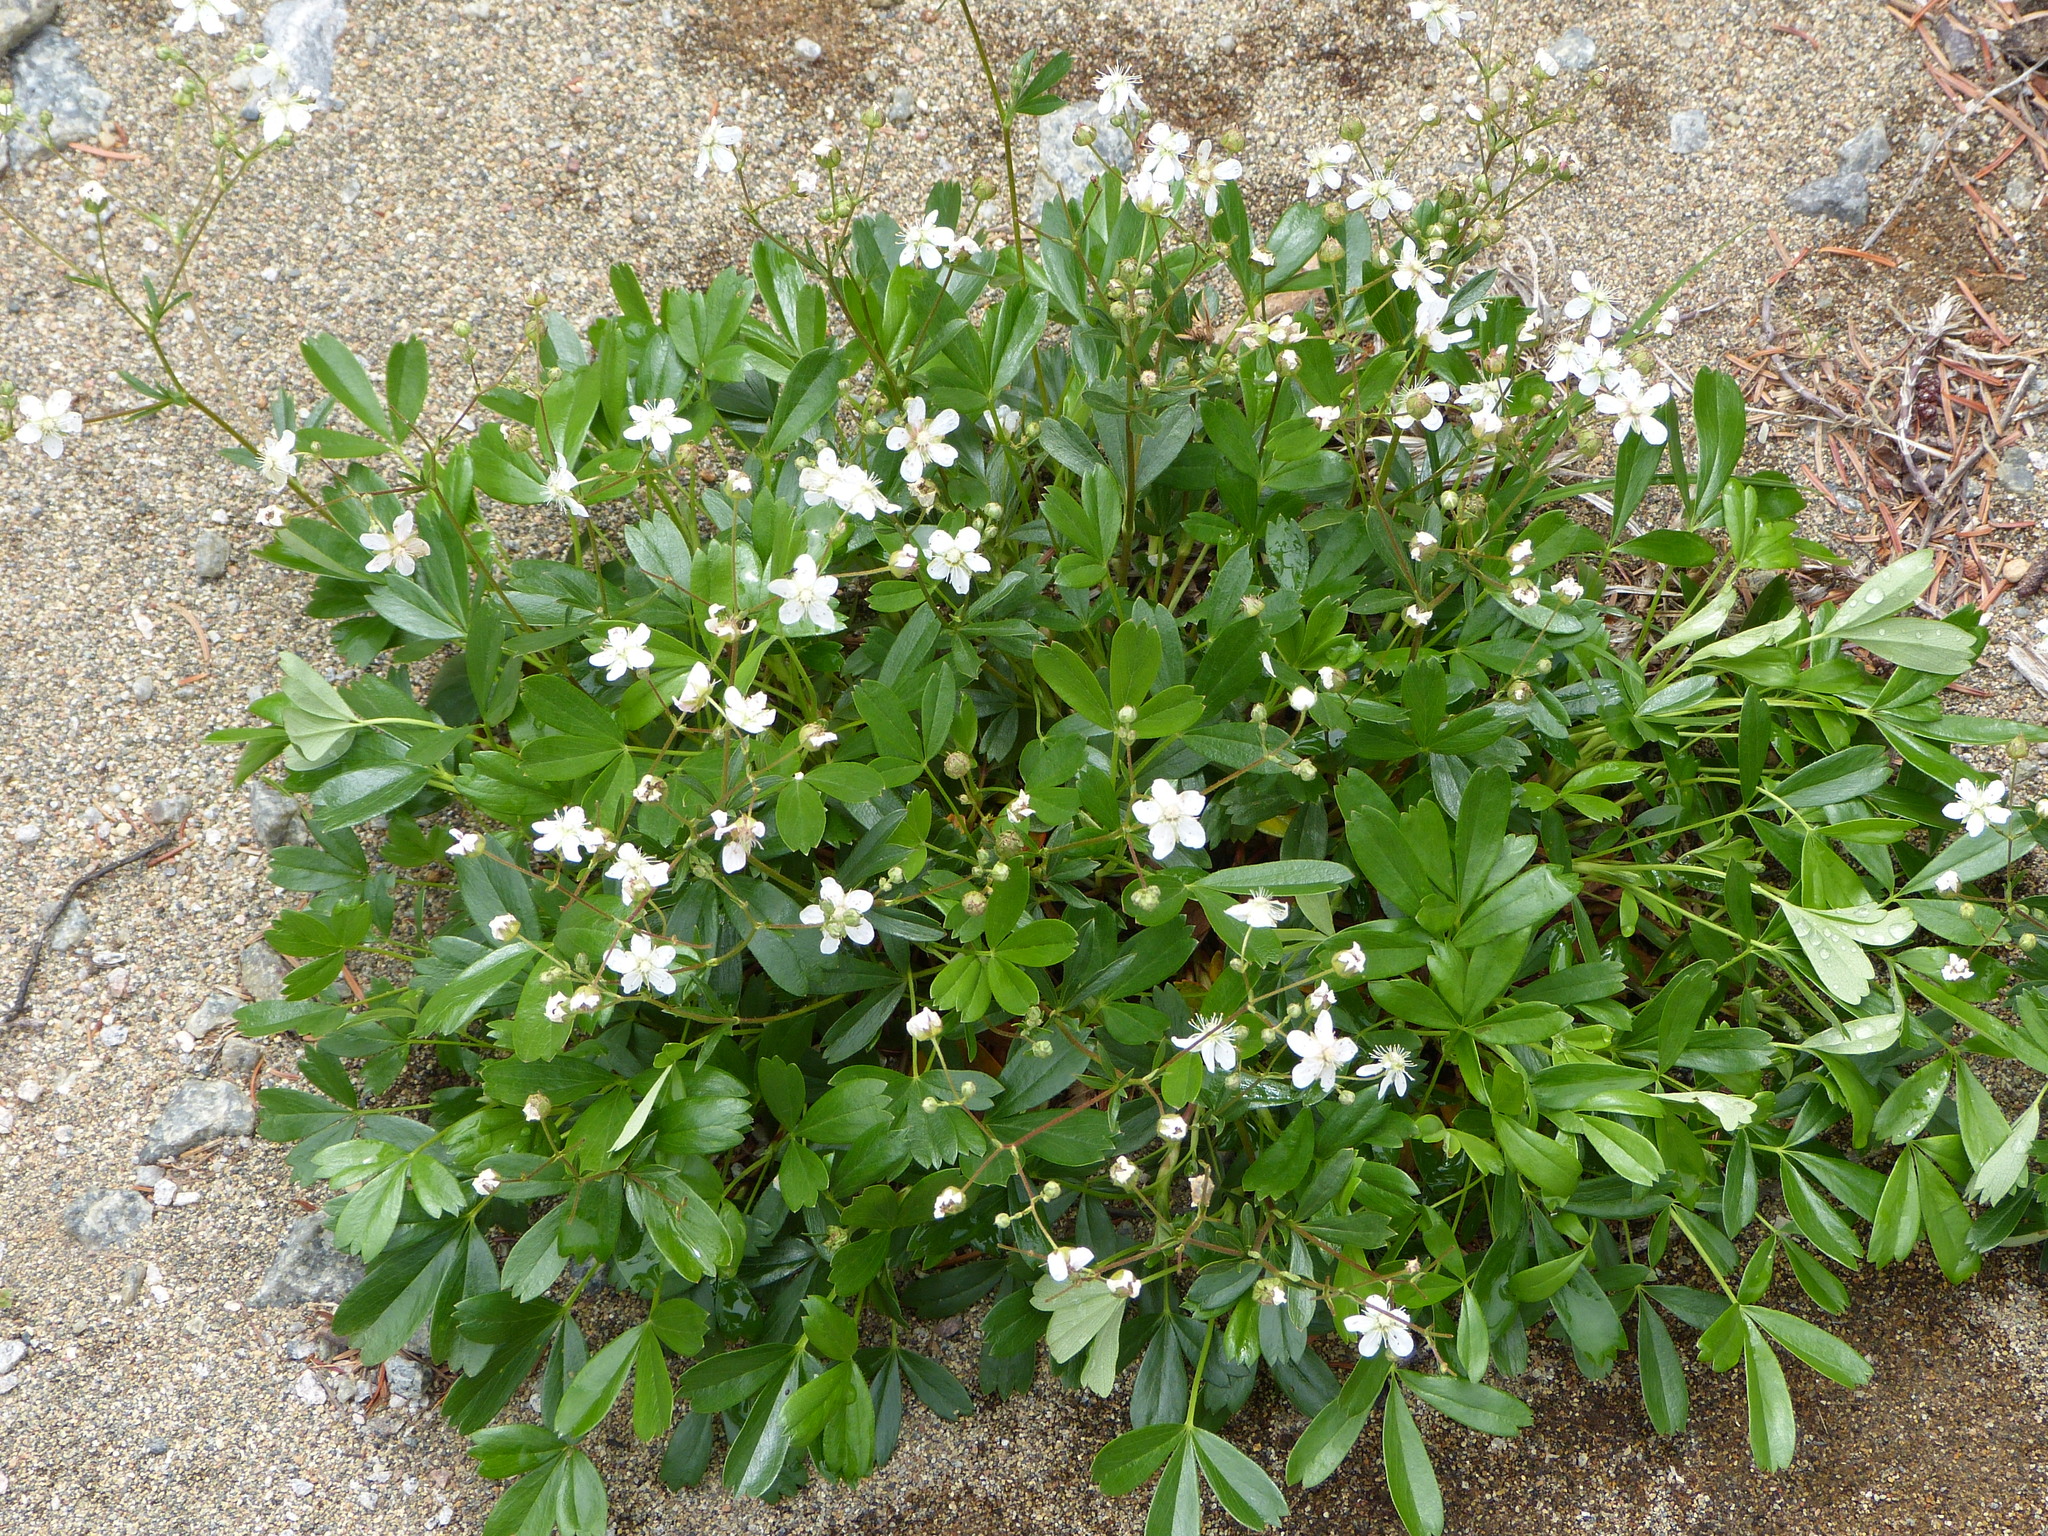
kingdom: Plantae
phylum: Tracheophyta
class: Magnoliopsida
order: Rosales
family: Rosaceae
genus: Sibbaldia
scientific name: Sibbaldia tridentata
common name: Three-toothed cinquefoil
